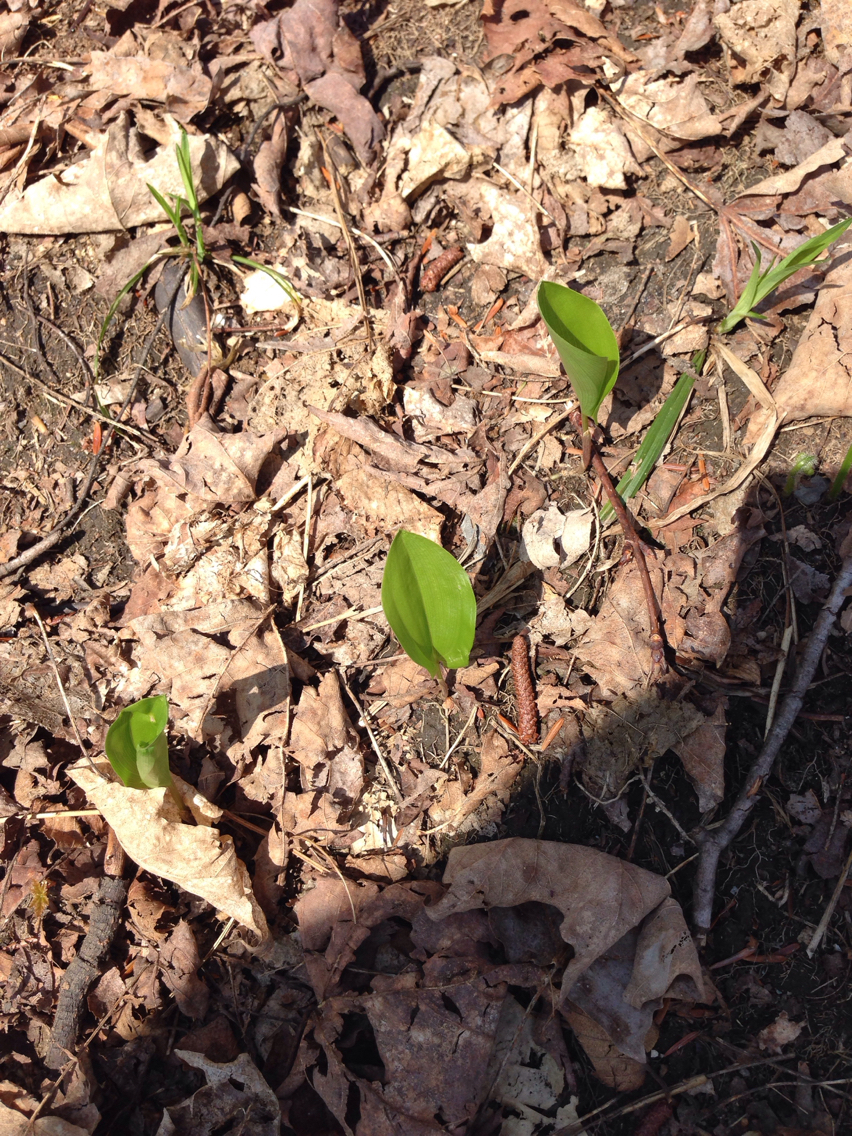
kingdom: Plantae
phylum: Tracheophyta
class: Liliopsida
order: Asparagales
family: Asparagaceae
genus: Maianthemum
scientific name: Maianthemum canadense
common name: False lily-of-the-valley
